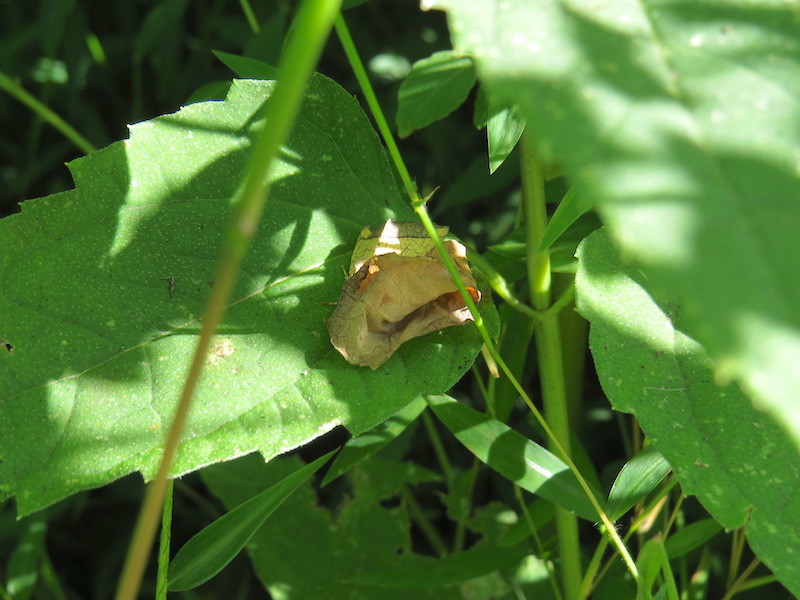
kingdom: Animalia
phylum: Arthropoda
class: Insecta
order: Lepidoptera
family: Noctuidae
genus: Papaipema
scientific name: Papaipema rigida
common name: Rigid sunflower borer moth
